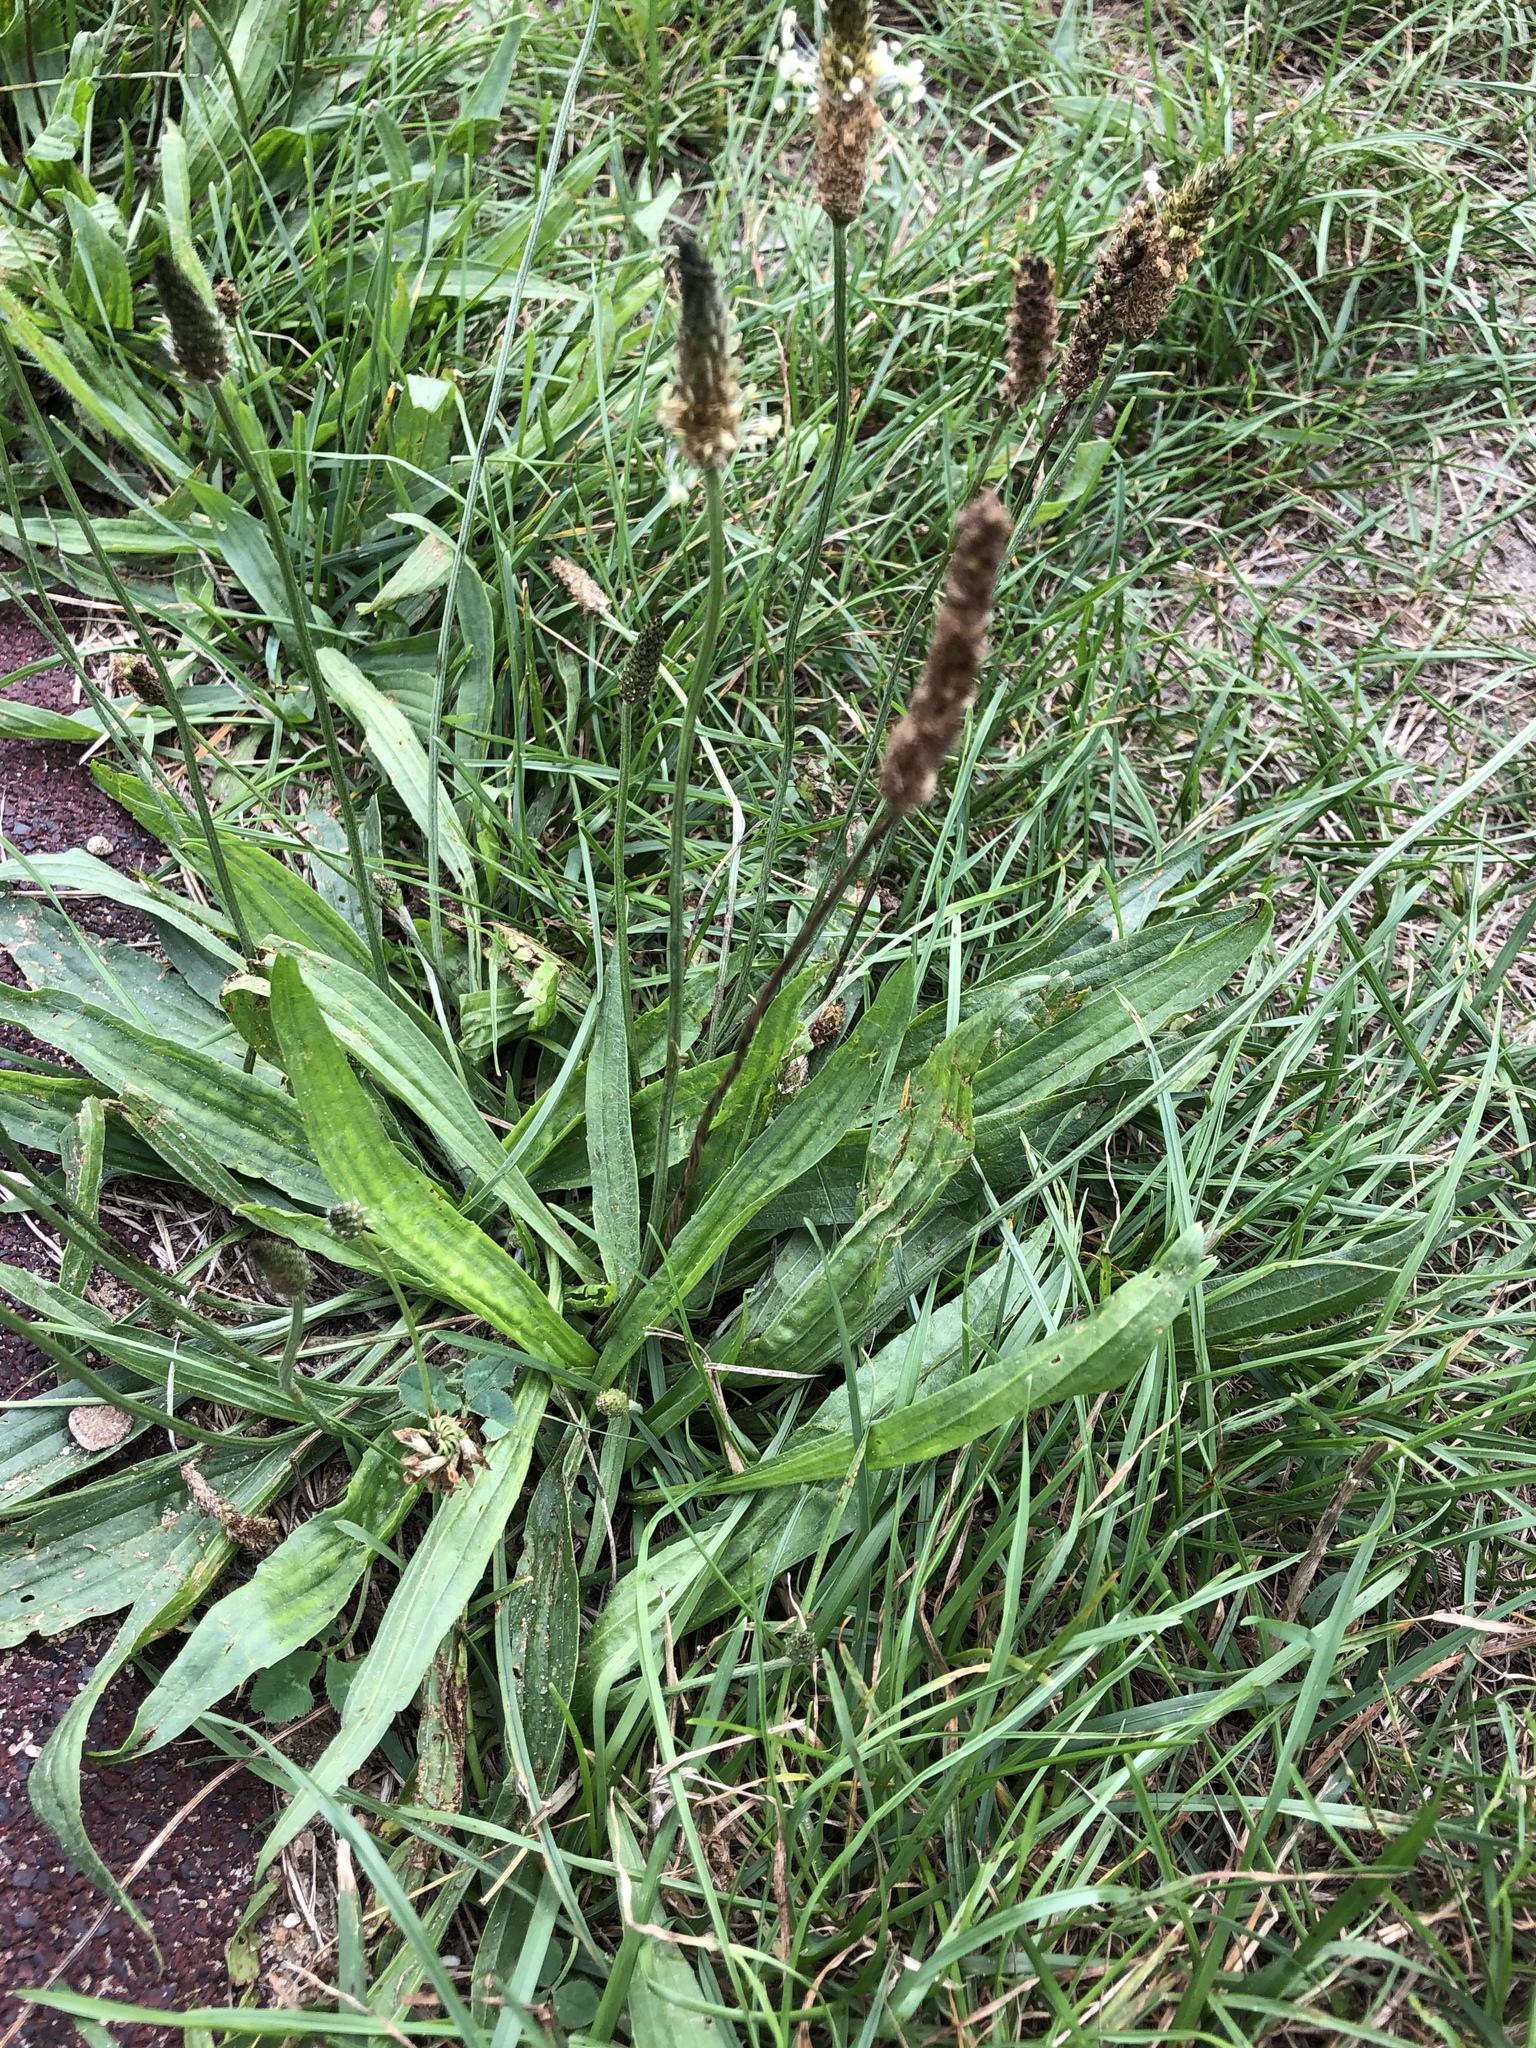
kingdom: Plantae
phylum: Tracheophyta
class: Magnoliopsida
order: Lamiales
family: Plantaginaceae
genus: Plantago
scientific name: Plantago lanceolata
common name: Ribwort plantain
